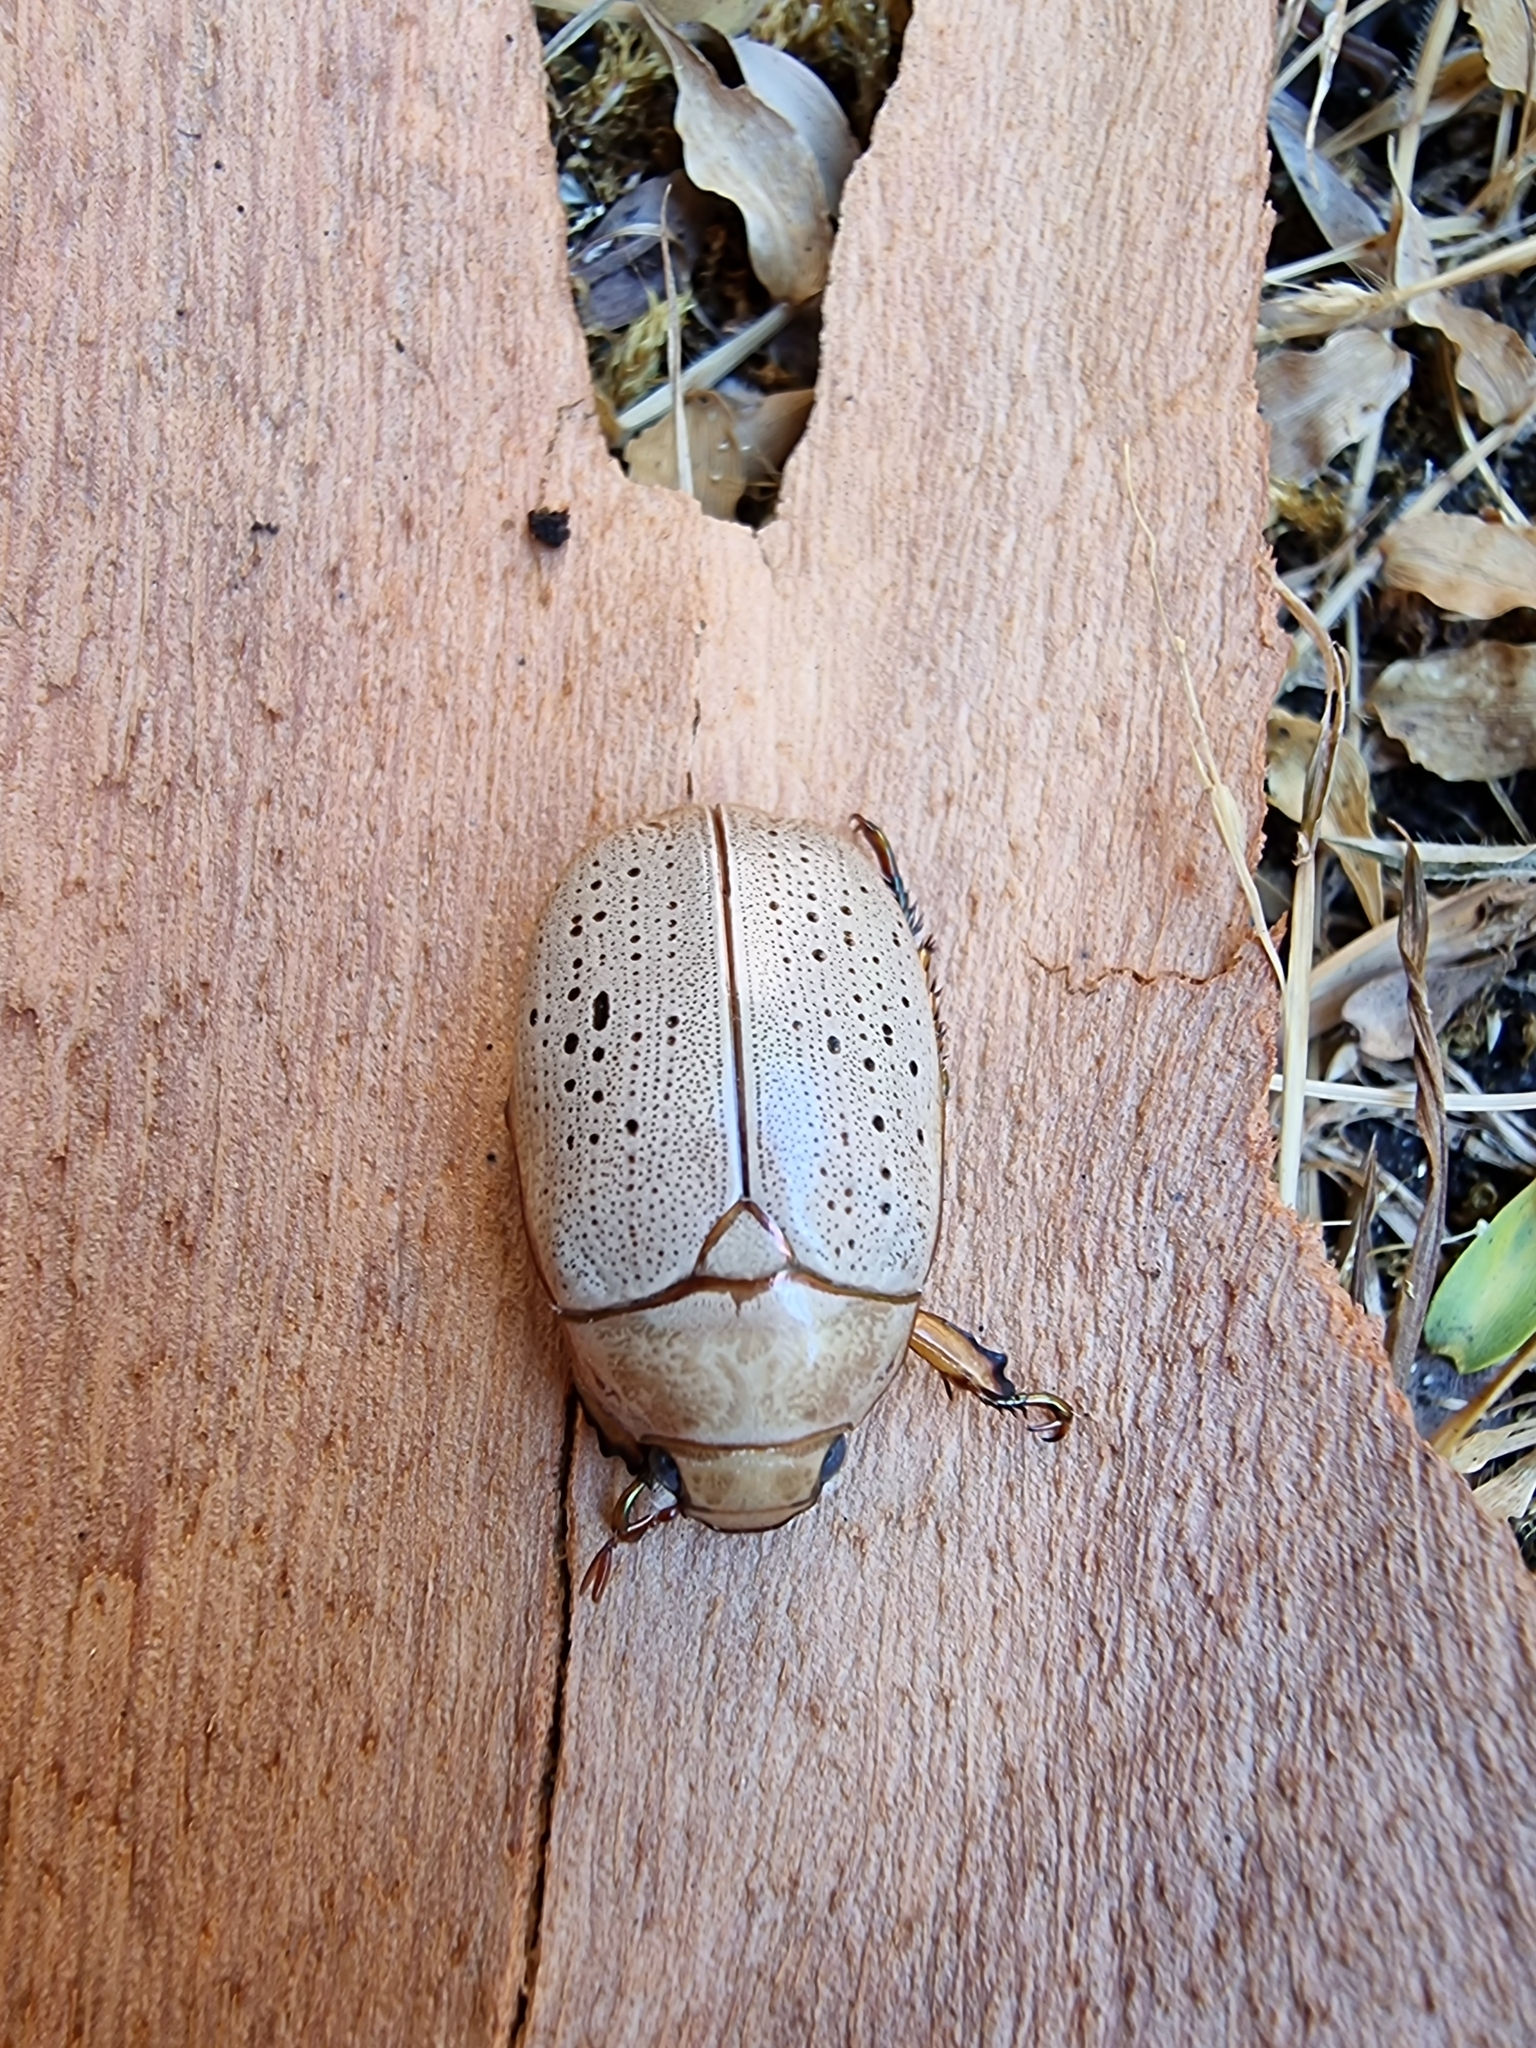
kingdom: Animalia
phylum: Arthropoda
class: Insecta
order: Coleoptera
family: Scarabaeidae
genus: Anoplognathus
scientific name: Anoplognathus porosus
